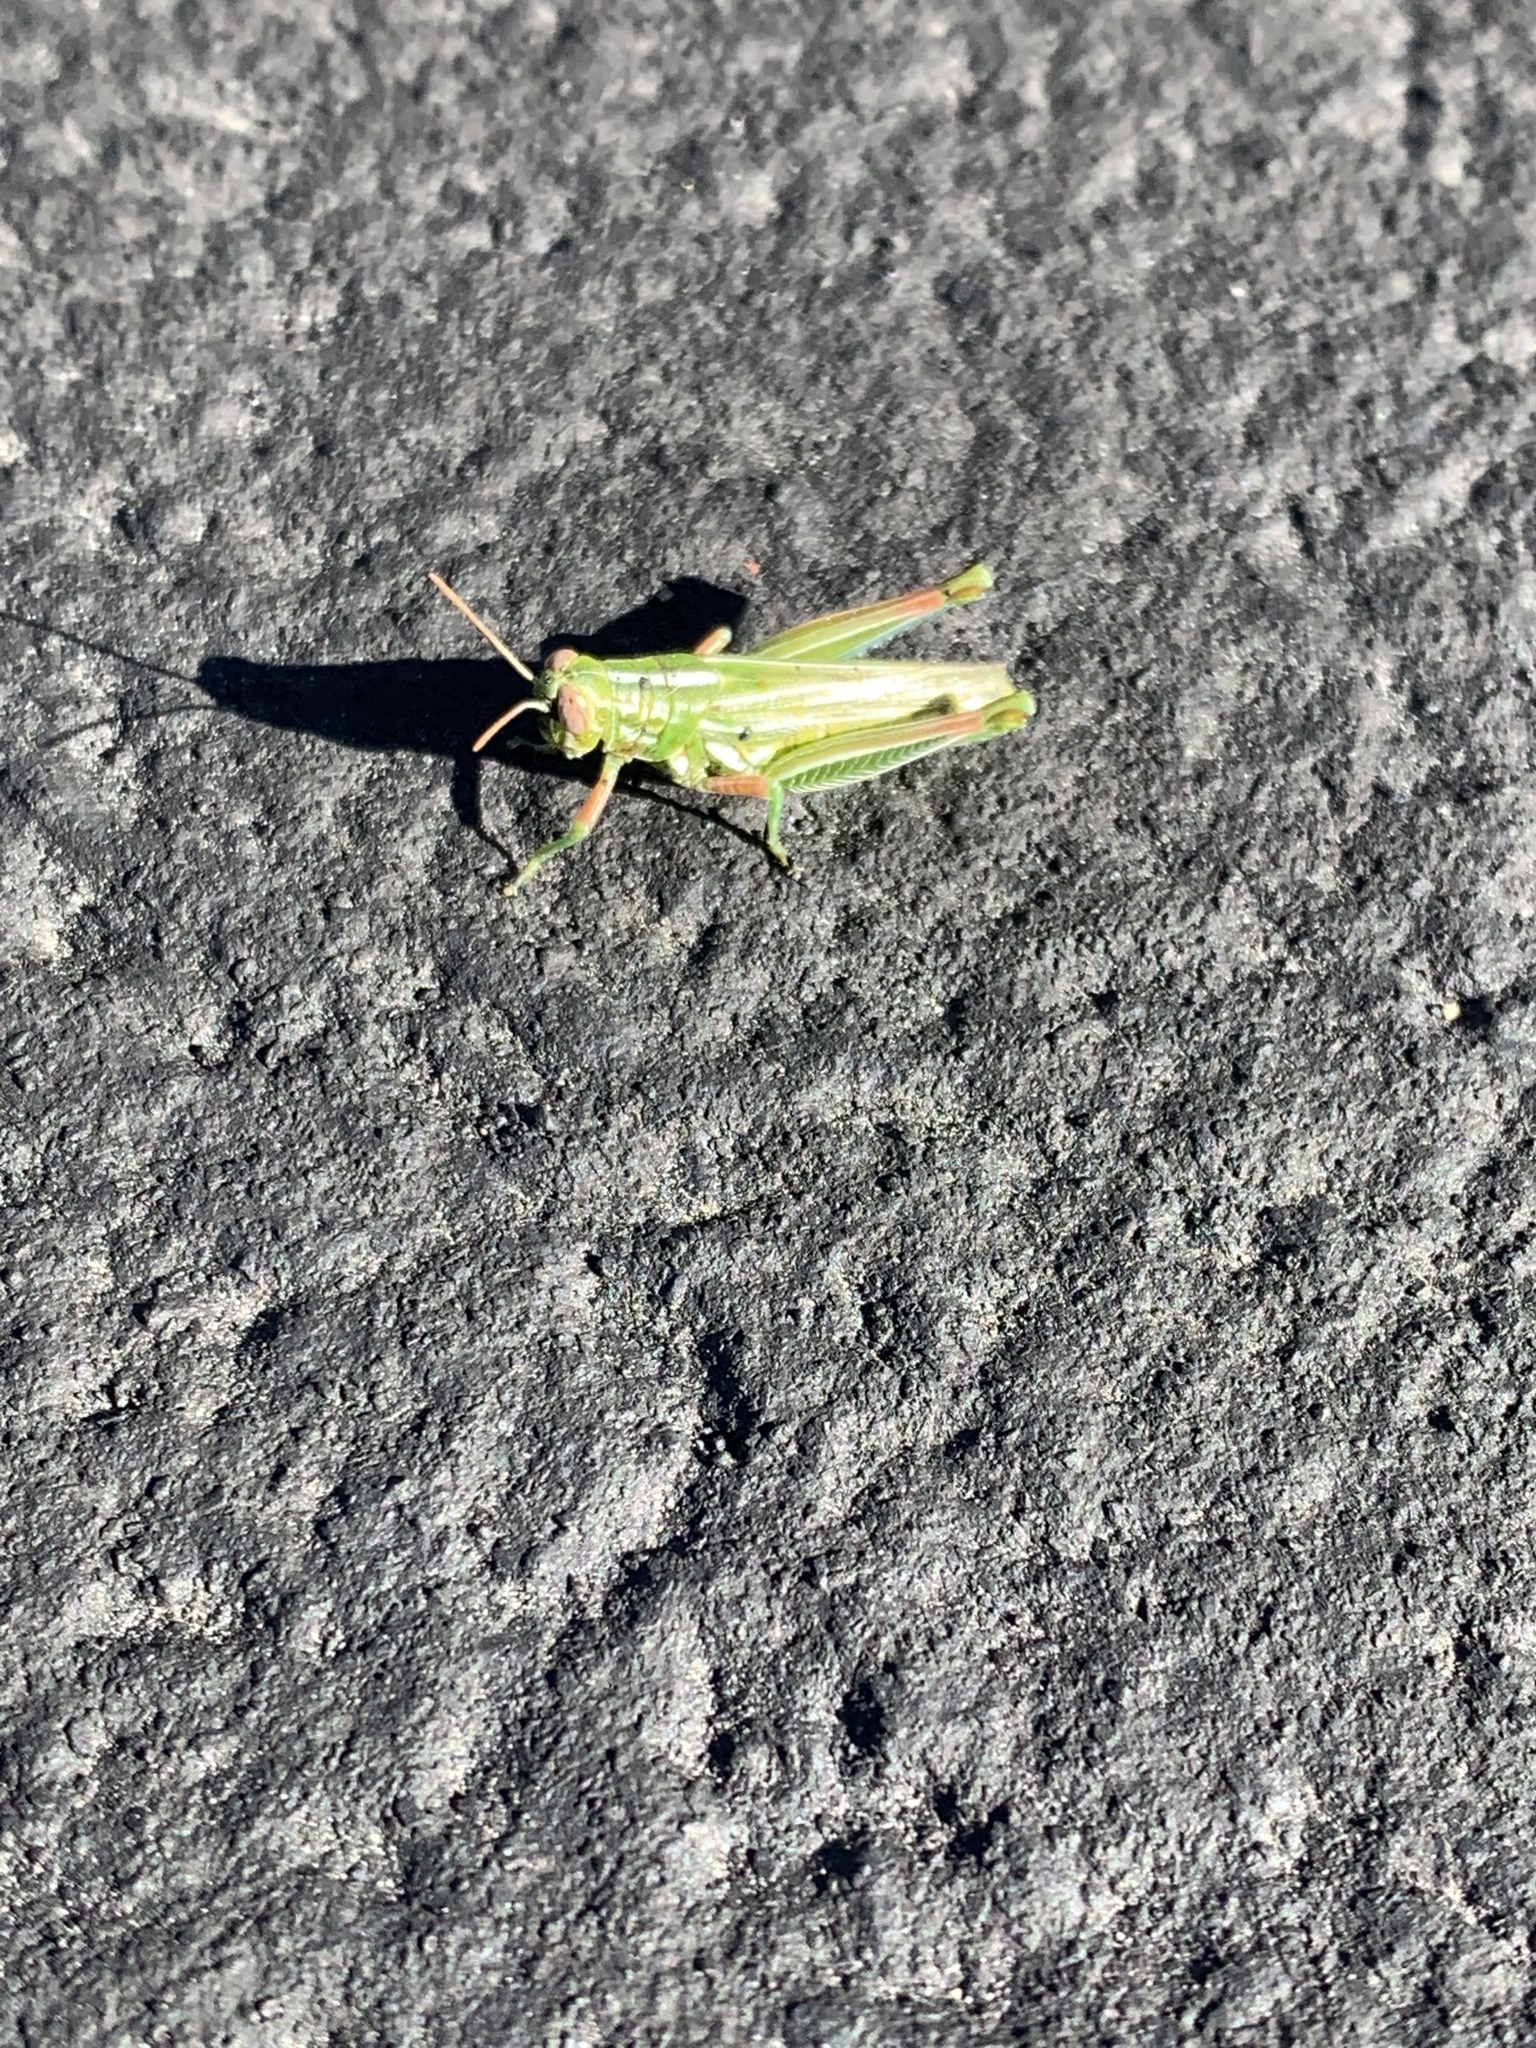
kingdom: Animalia
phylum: Arthropoda
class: Insecta
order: Orthoptera
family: Acrididae
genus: Hesperotettix
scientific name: Hesperotettix viridis
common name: Meadow purple-striped grasshopper
